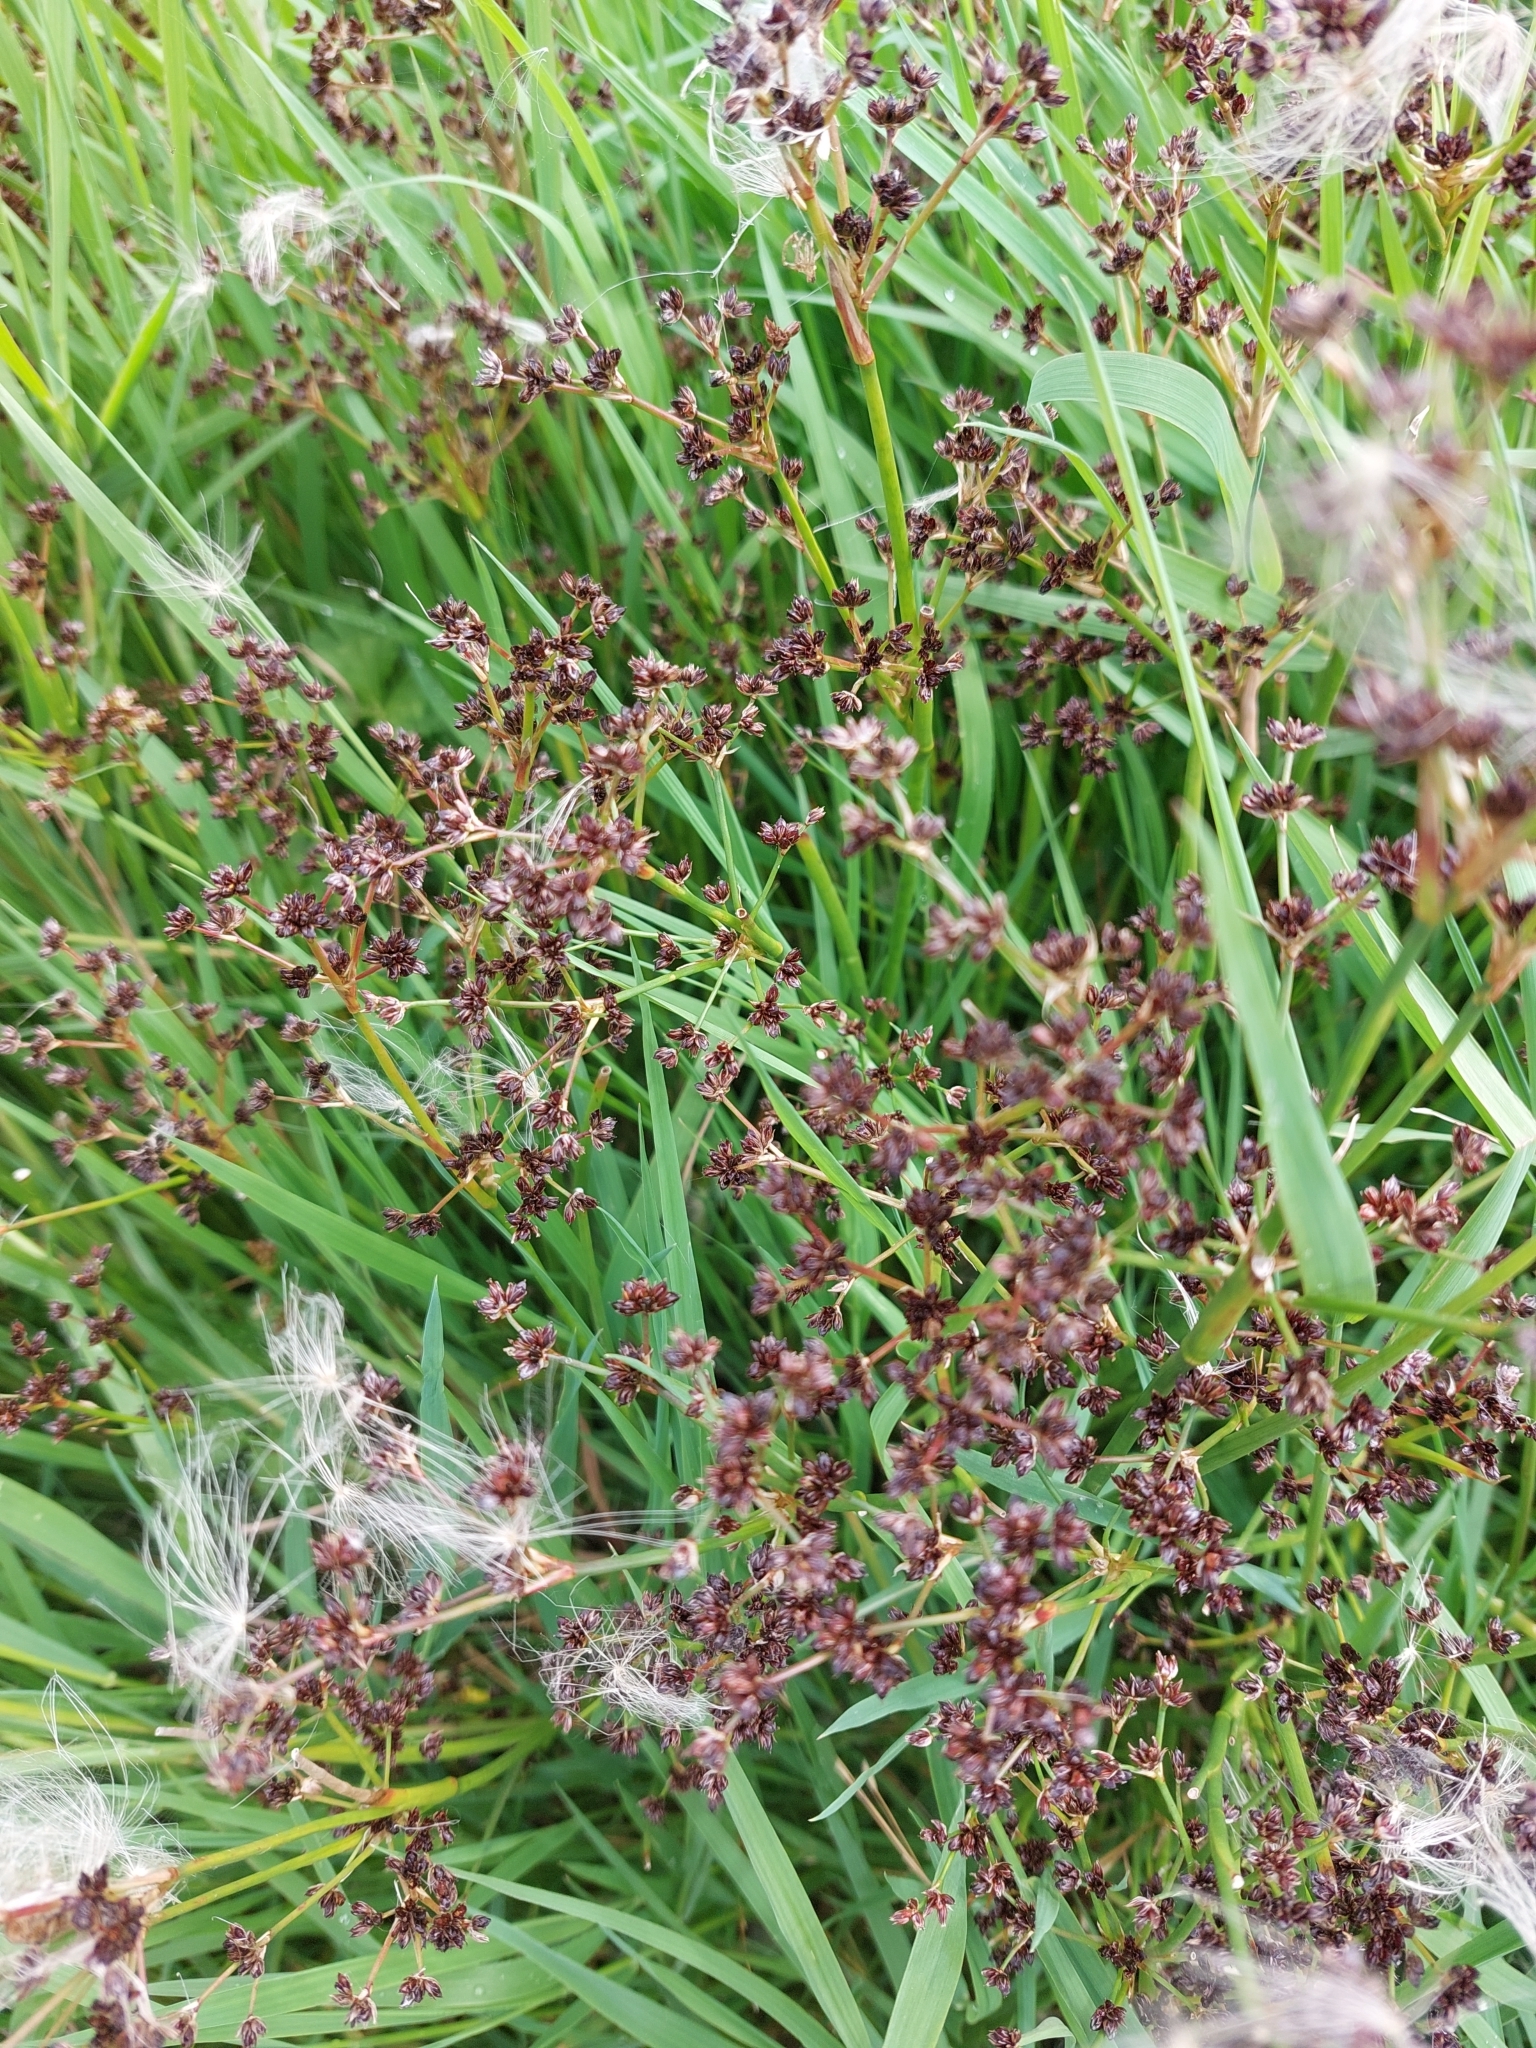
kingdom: Plantae
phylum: Tracheophyta
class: Liliopsida
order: Poales
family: Juncaceae
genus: Juncus
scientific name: Juncus articulatus
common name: Jointed rush
